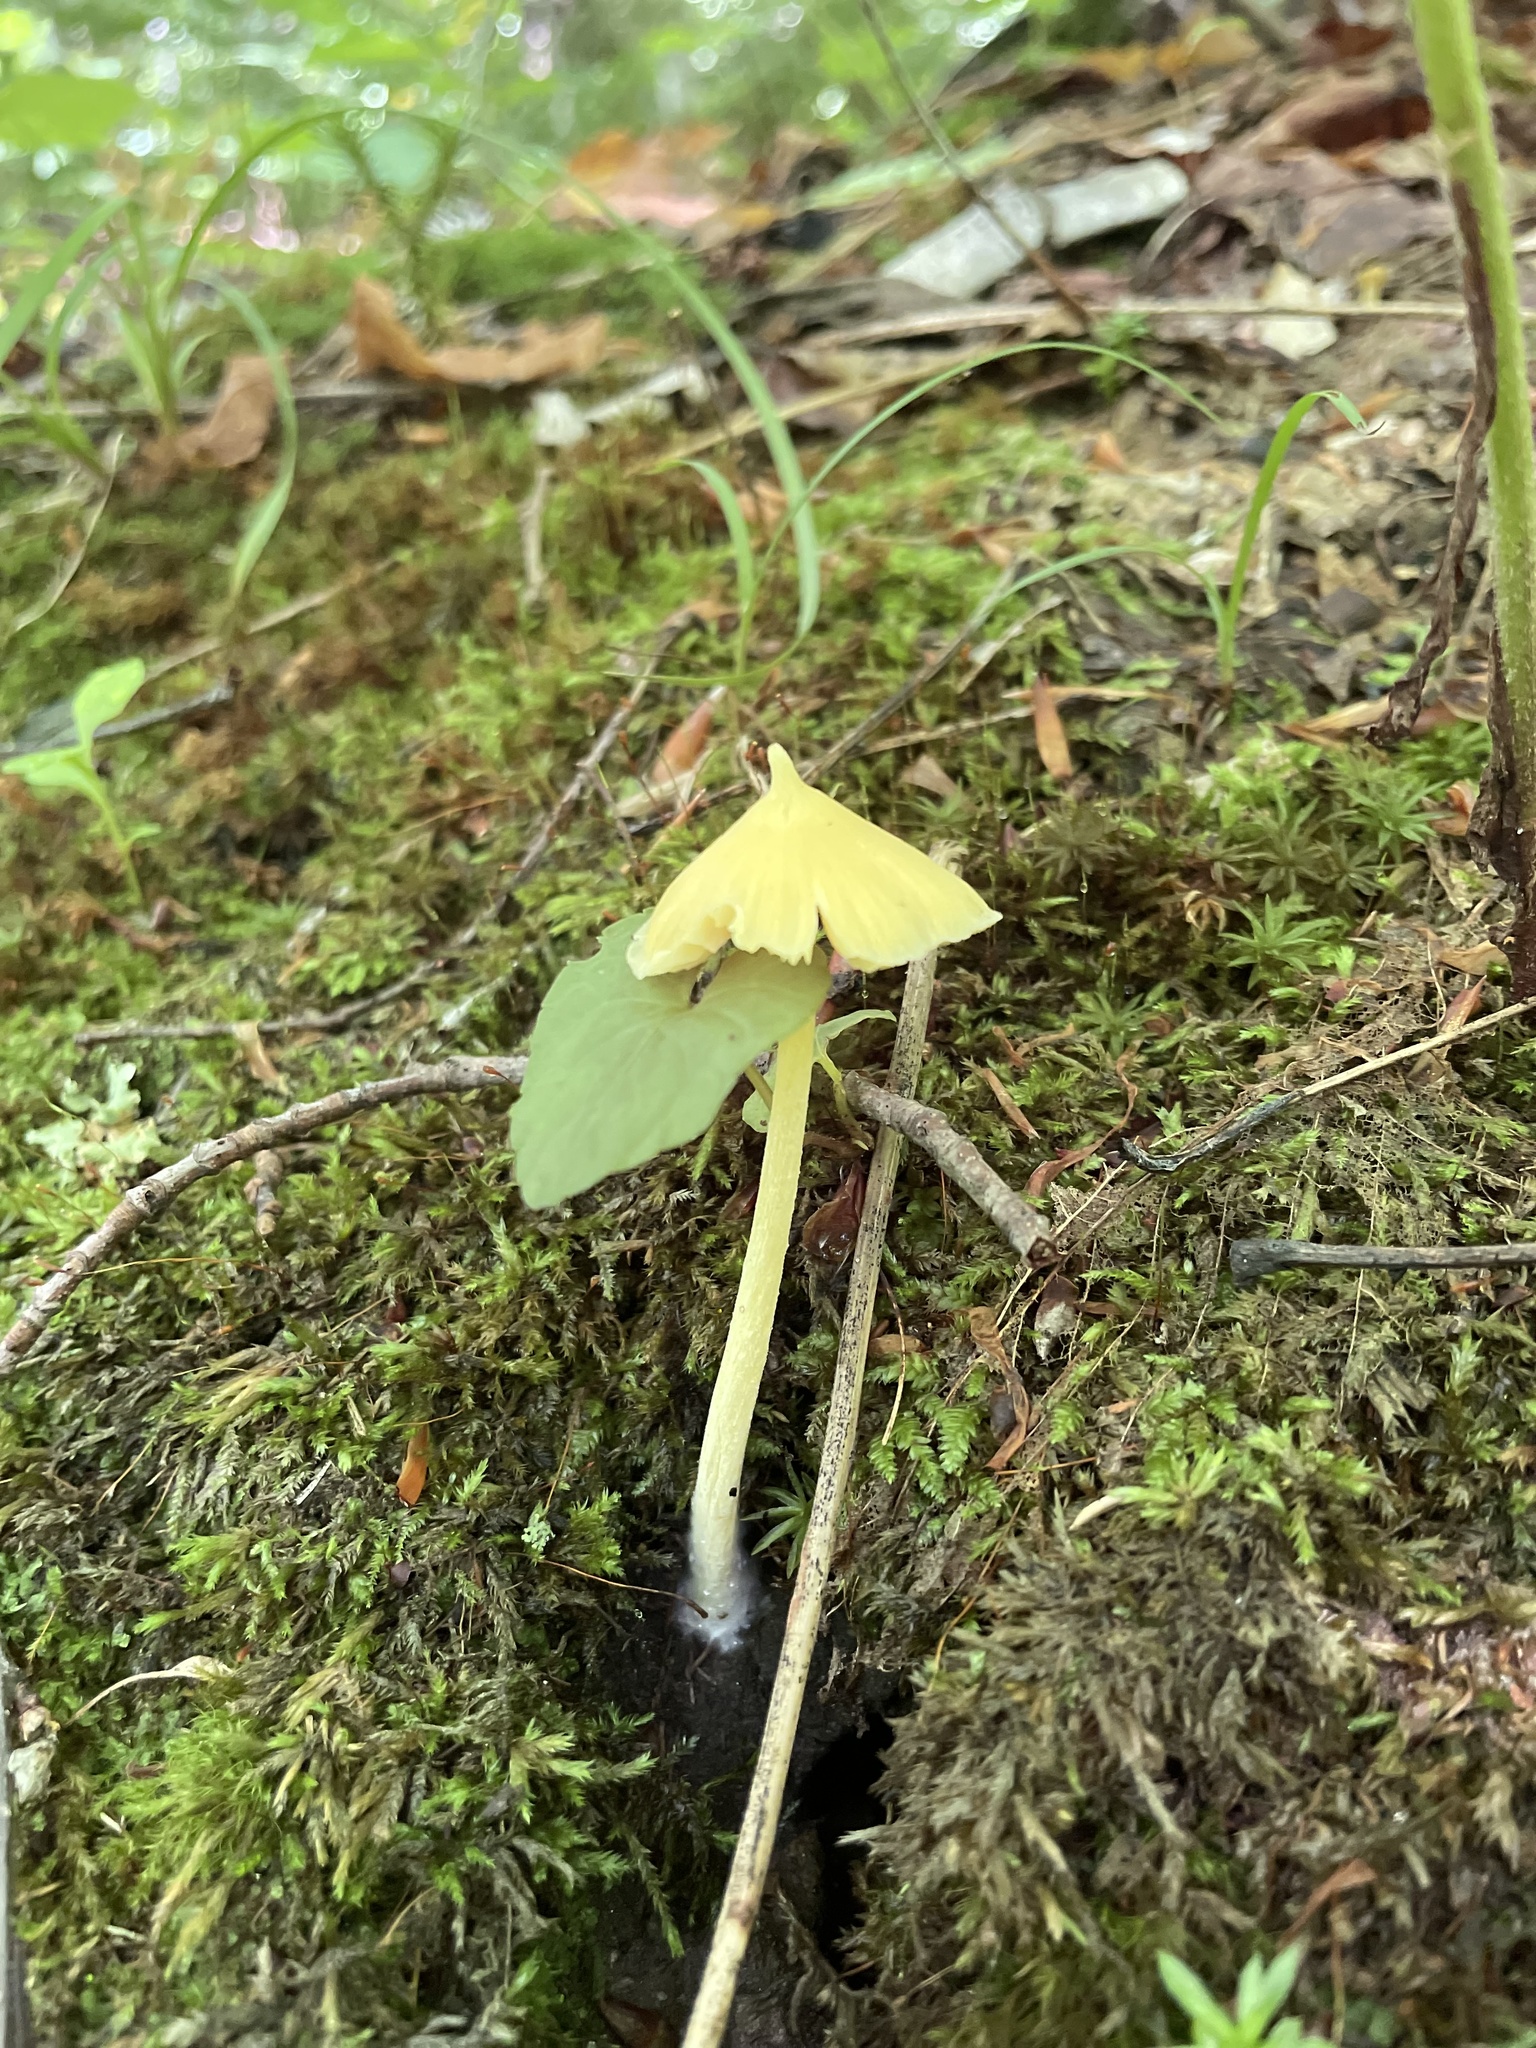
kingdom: Fungi
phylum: Basidiomycota
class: Agaricomycetes
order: Agaricales
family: Entolomataceae
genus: Entoloma
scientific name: Entoloma murrayi
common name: Yellow unicorn entoloma
